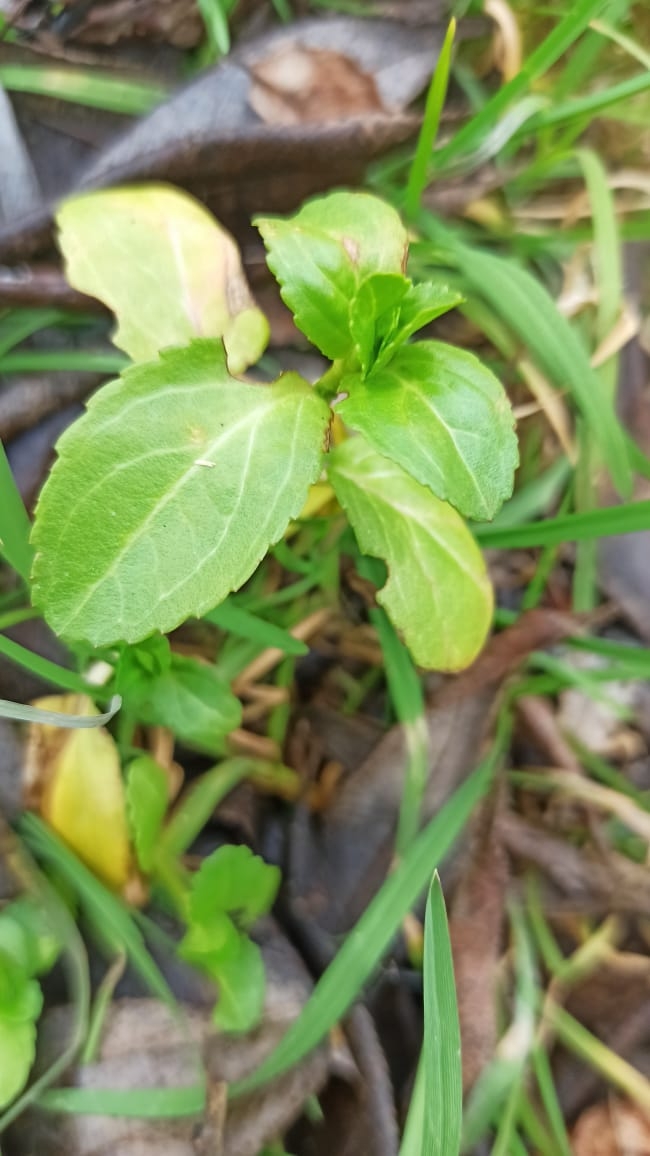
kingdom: Plantae
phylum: Tracheophyta
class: Magnoliopsida
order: Lamiales
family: Plantaginaceae
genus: Veronica
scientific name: Veronica beccabunga
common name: Brooklime
